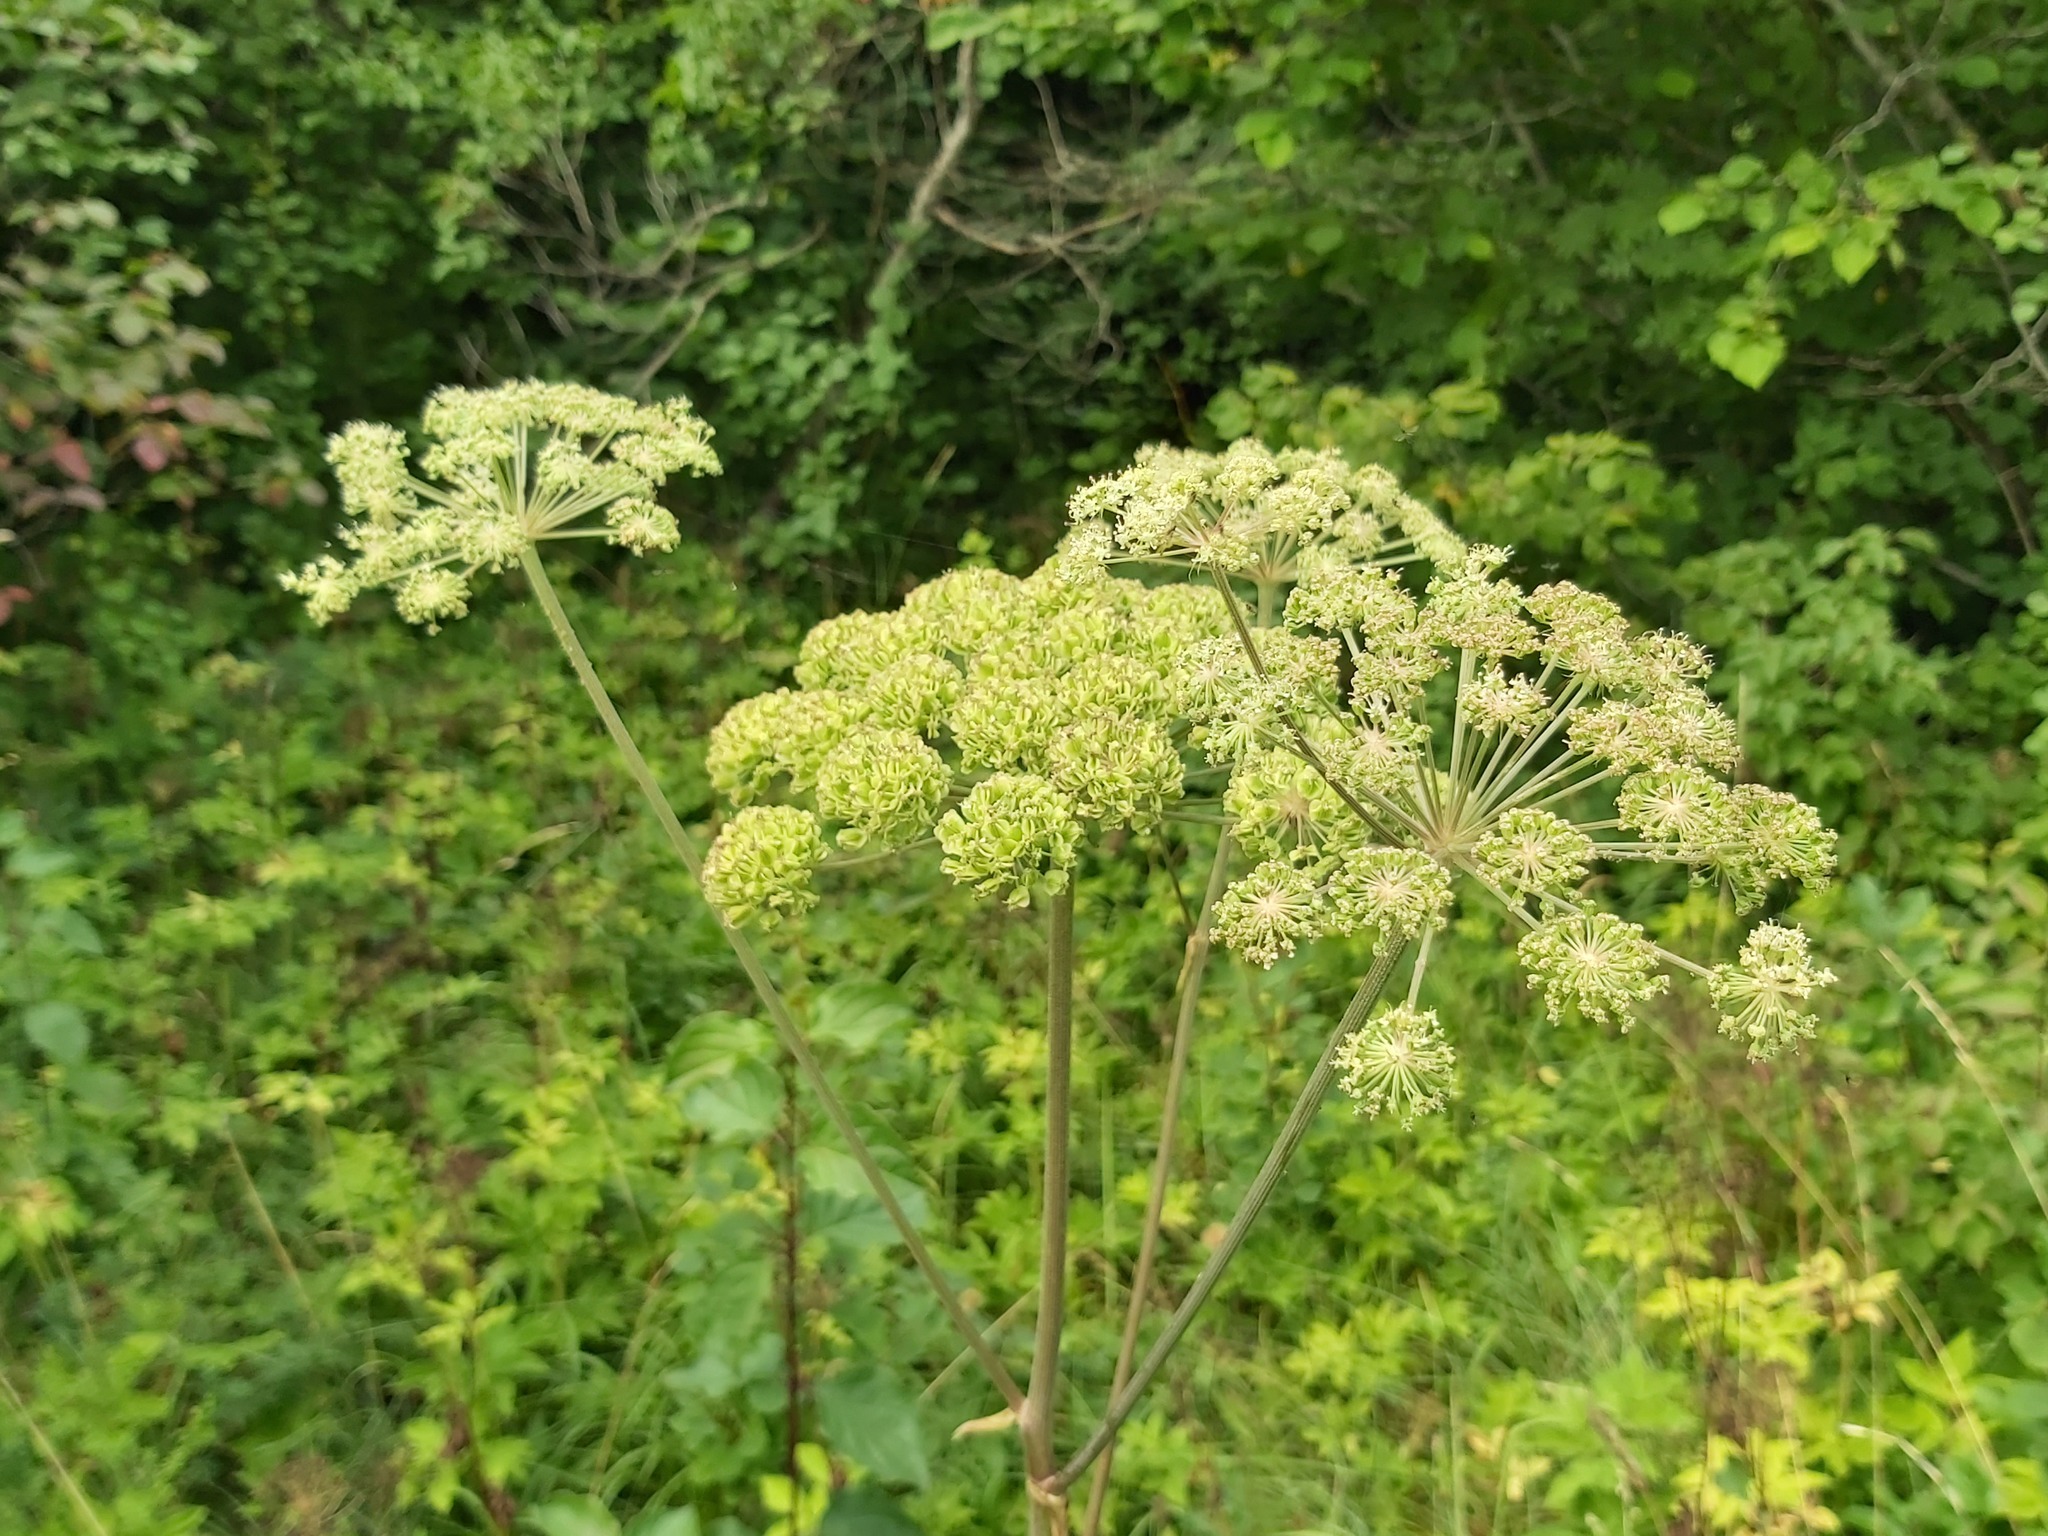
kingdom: Plantae
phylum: Tracheophyta
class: Magnoliopsida
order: Apiales
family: Apiaceae
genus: Angelica
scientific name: Angelica sylvestris
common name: Wild angelica
